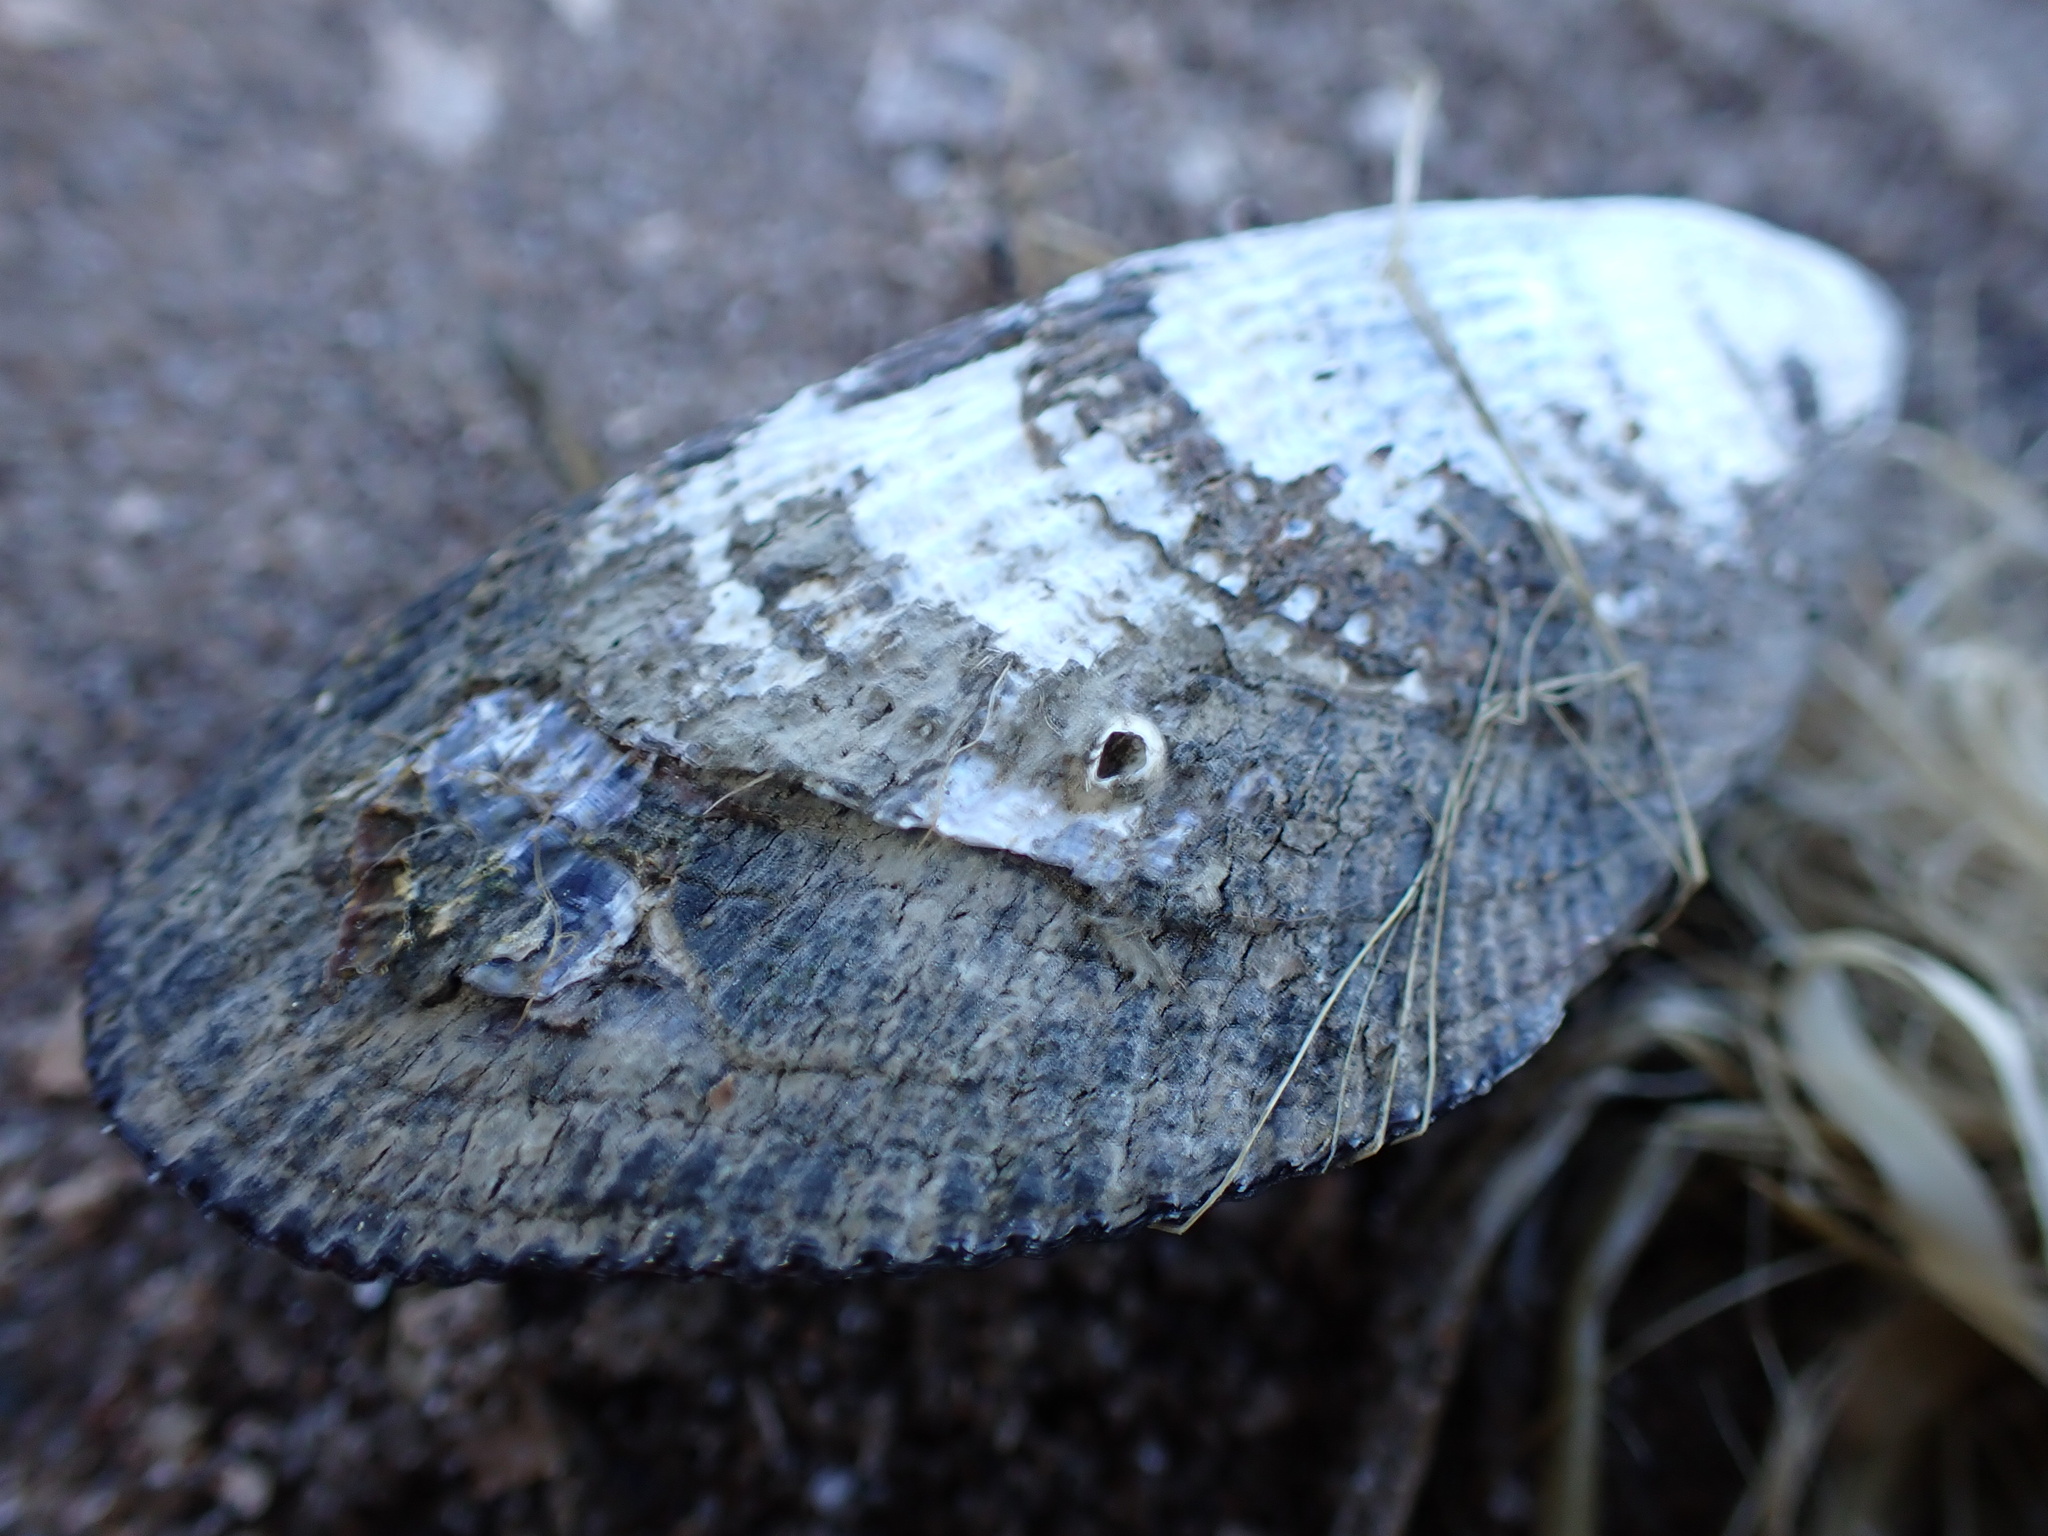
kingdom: Animalia
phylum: Mollusca
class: Bivalvia
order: Mytilida
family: Mytilidae
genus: Geukensia
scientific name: Geukensia demissa
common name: Ribbed mussel
